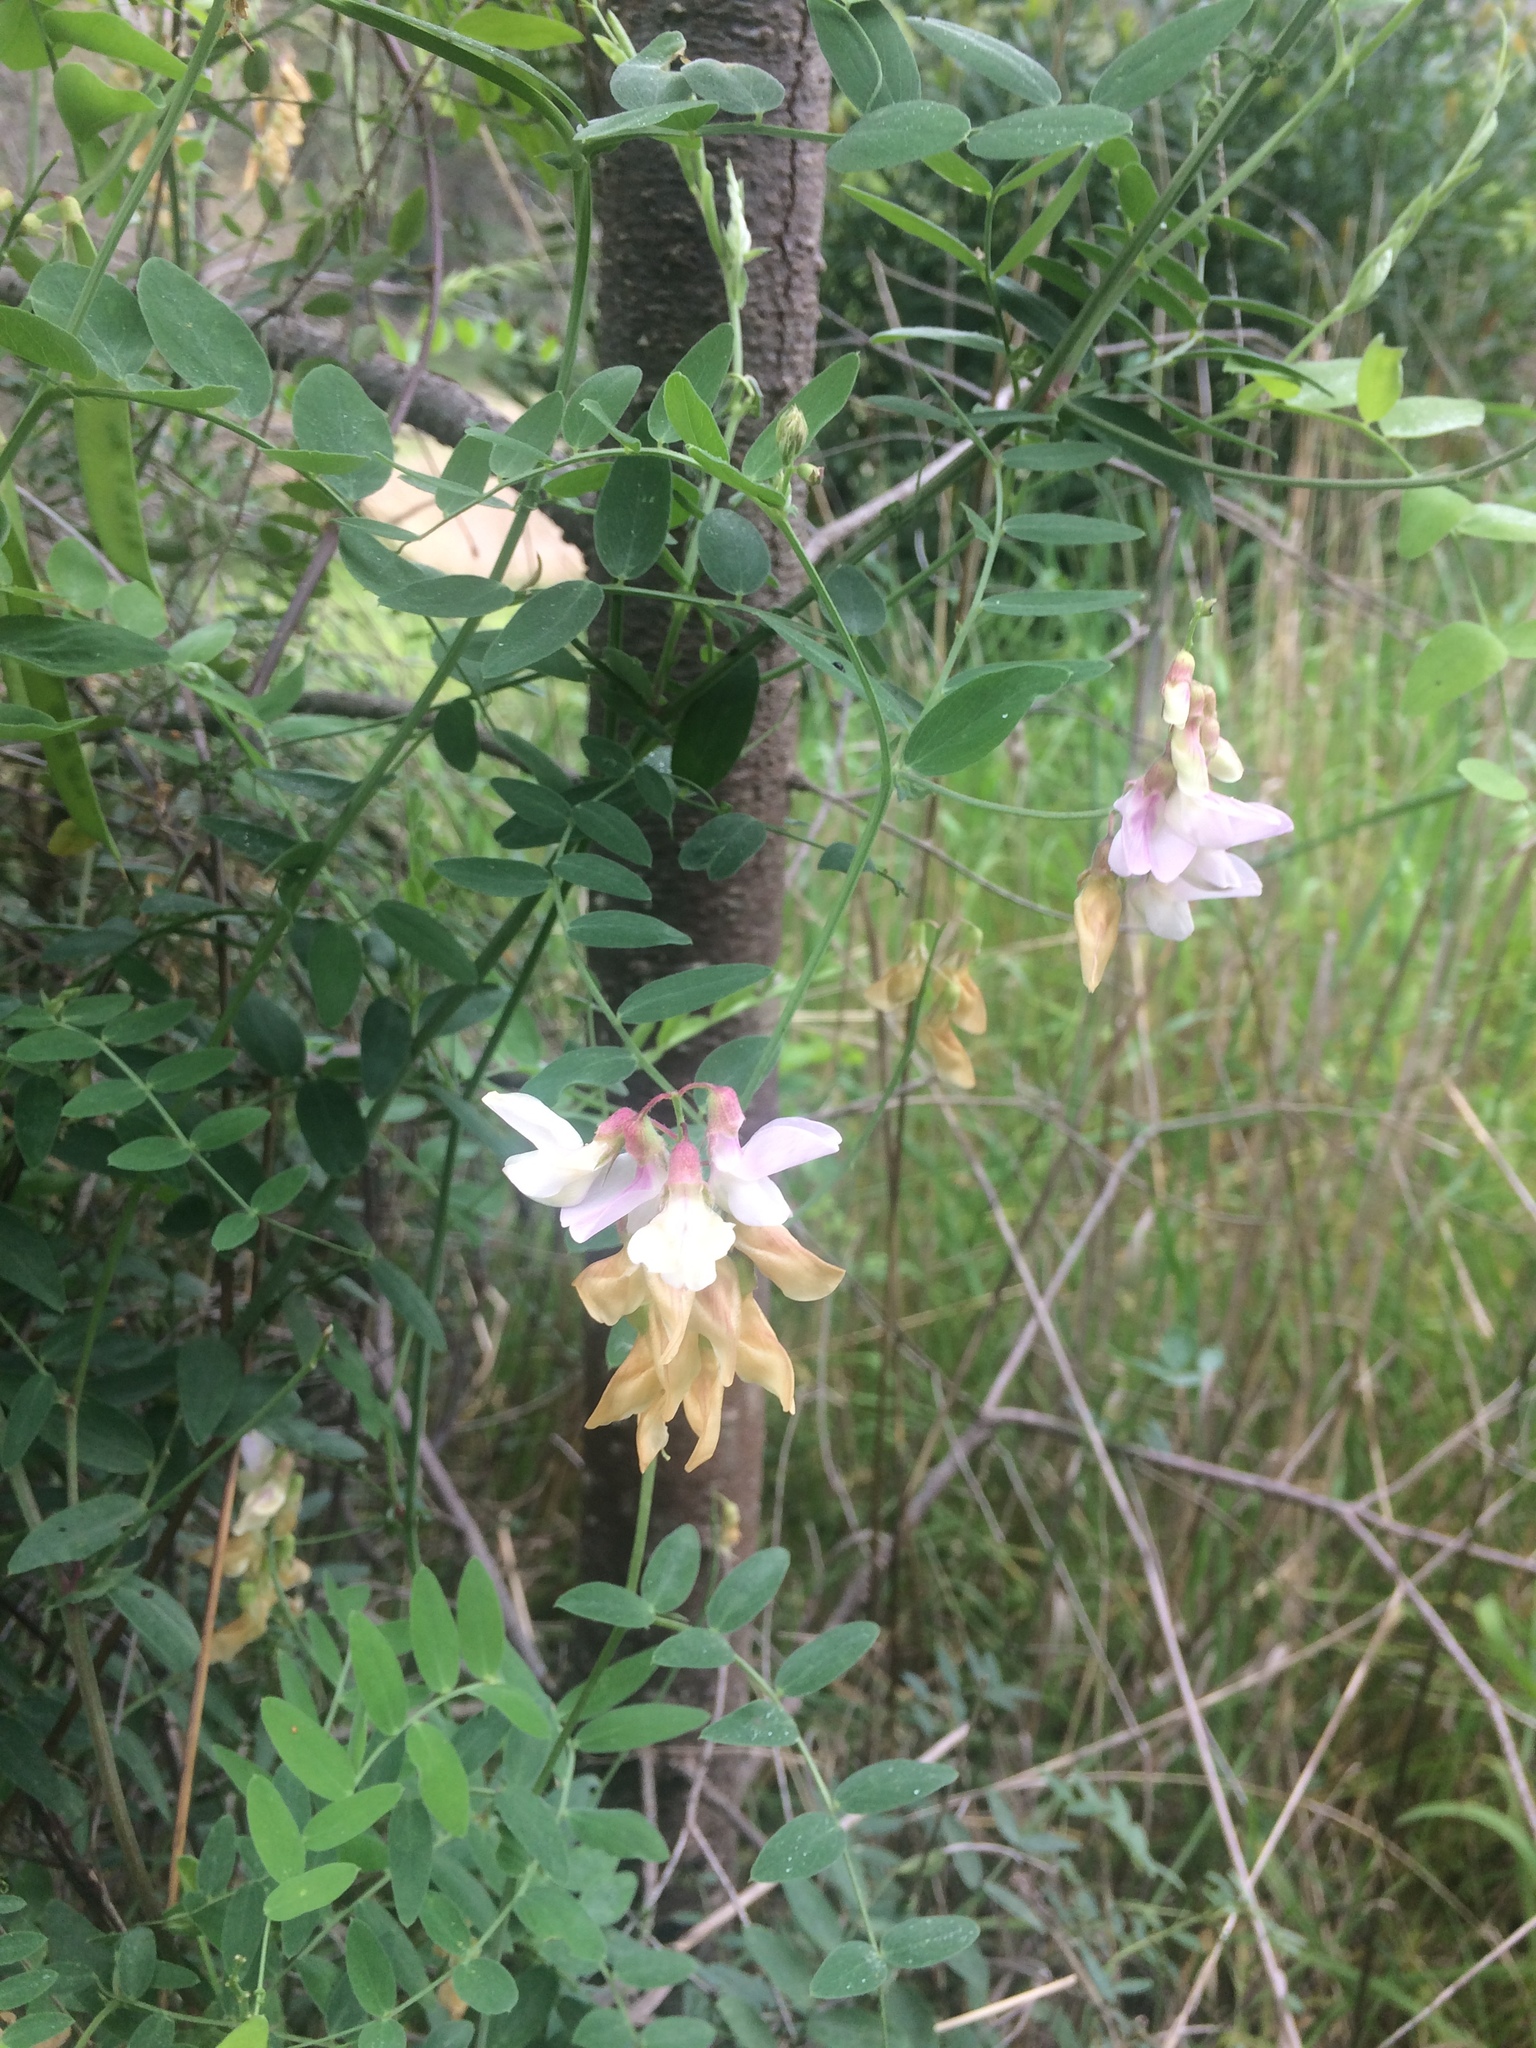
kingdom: Plantae
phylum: Tracheophyta
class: Magnoliopsida
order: Fabales
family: Fabaceae
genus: Lathyrus
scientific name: Lathyrus vestitus
